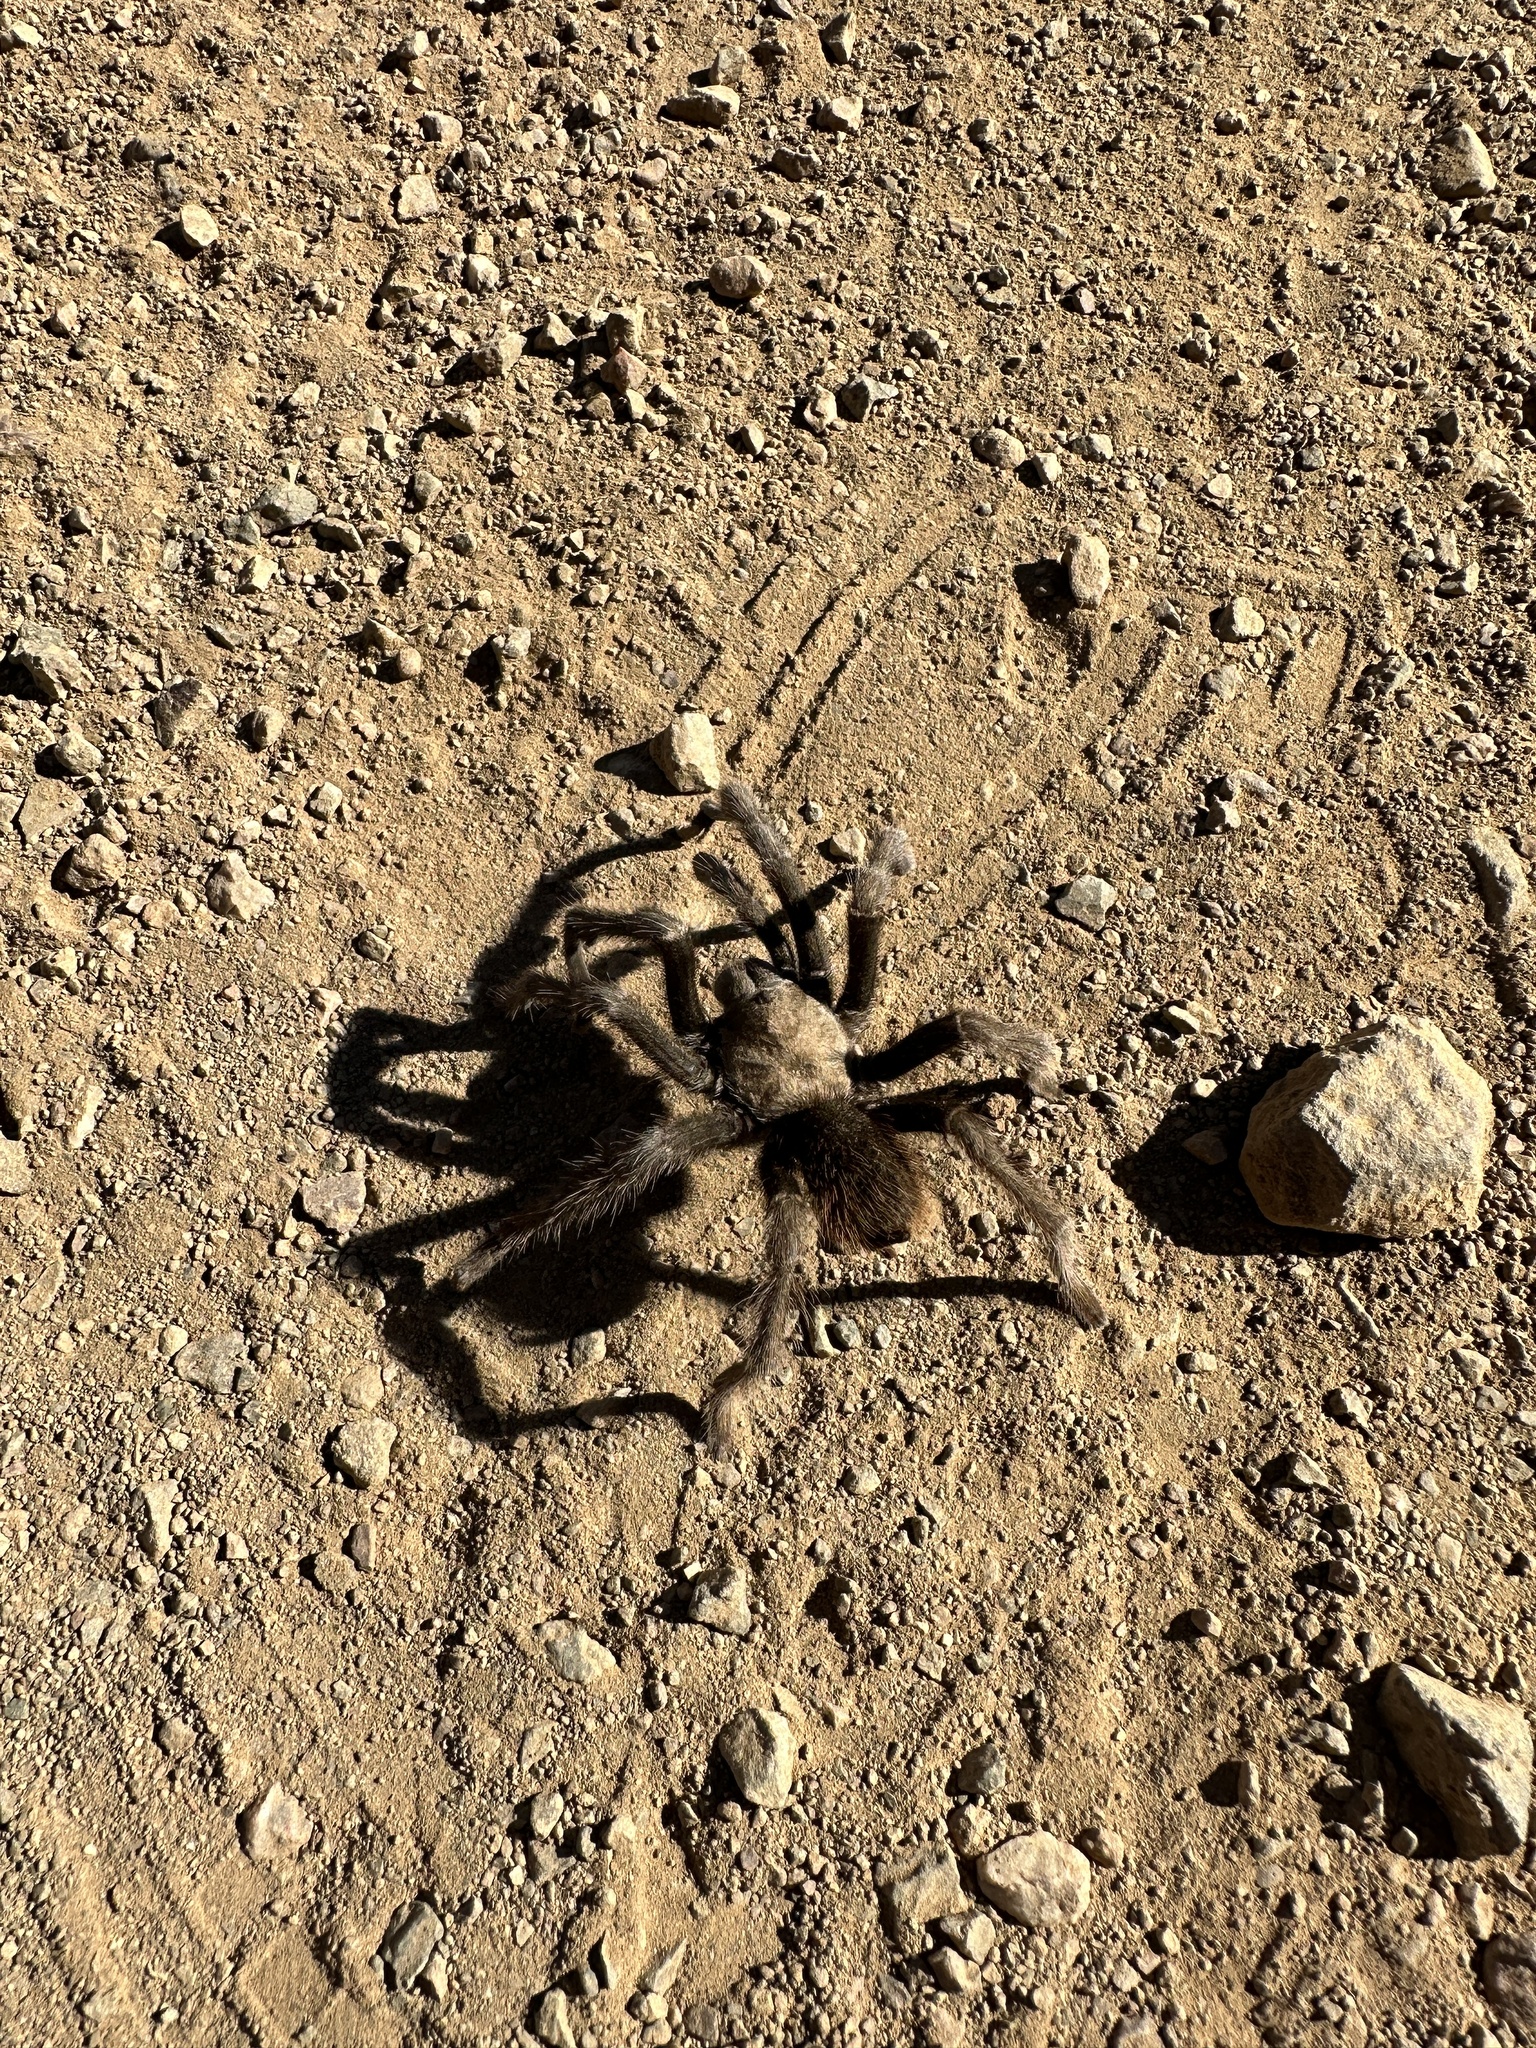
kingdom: Animalia
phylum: Arthropoda
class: Arachnida
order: Araneae
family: Theraphosidae
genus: Aphonopelma
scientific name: Aphonopelma iodius
